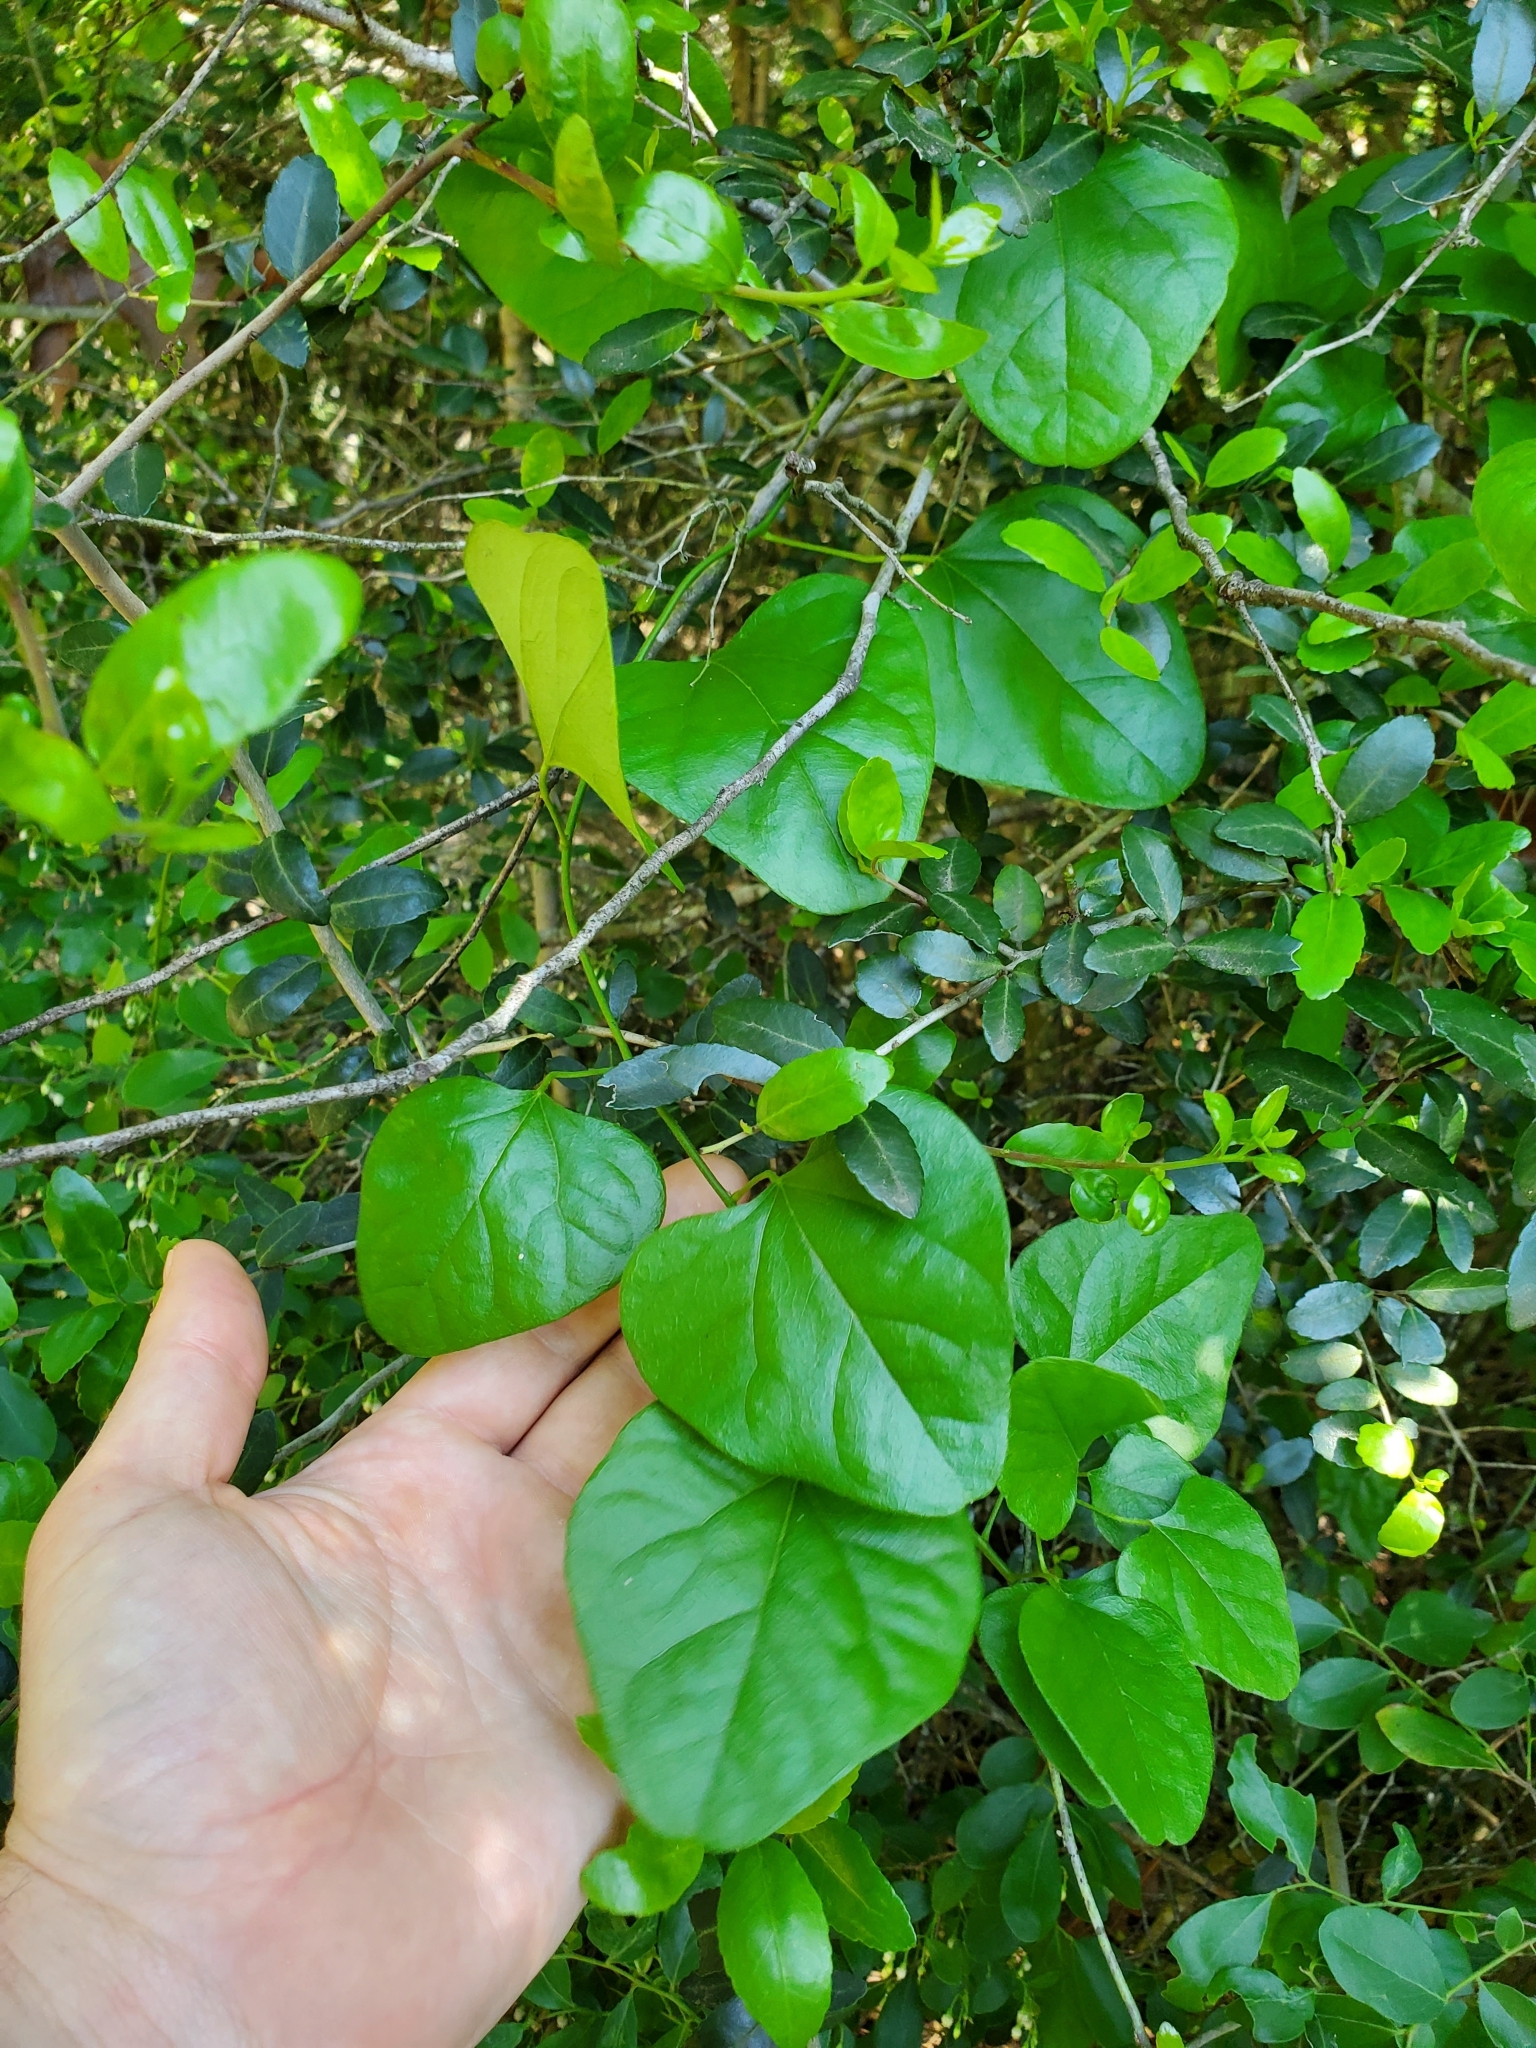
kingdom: Plantae
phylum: Tracheophyta
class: Magnoliopsida
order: Ranunculales
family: Menispermaceae
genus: Cocculus
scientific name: Cocculus carolinus
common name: Carolina moonseed
